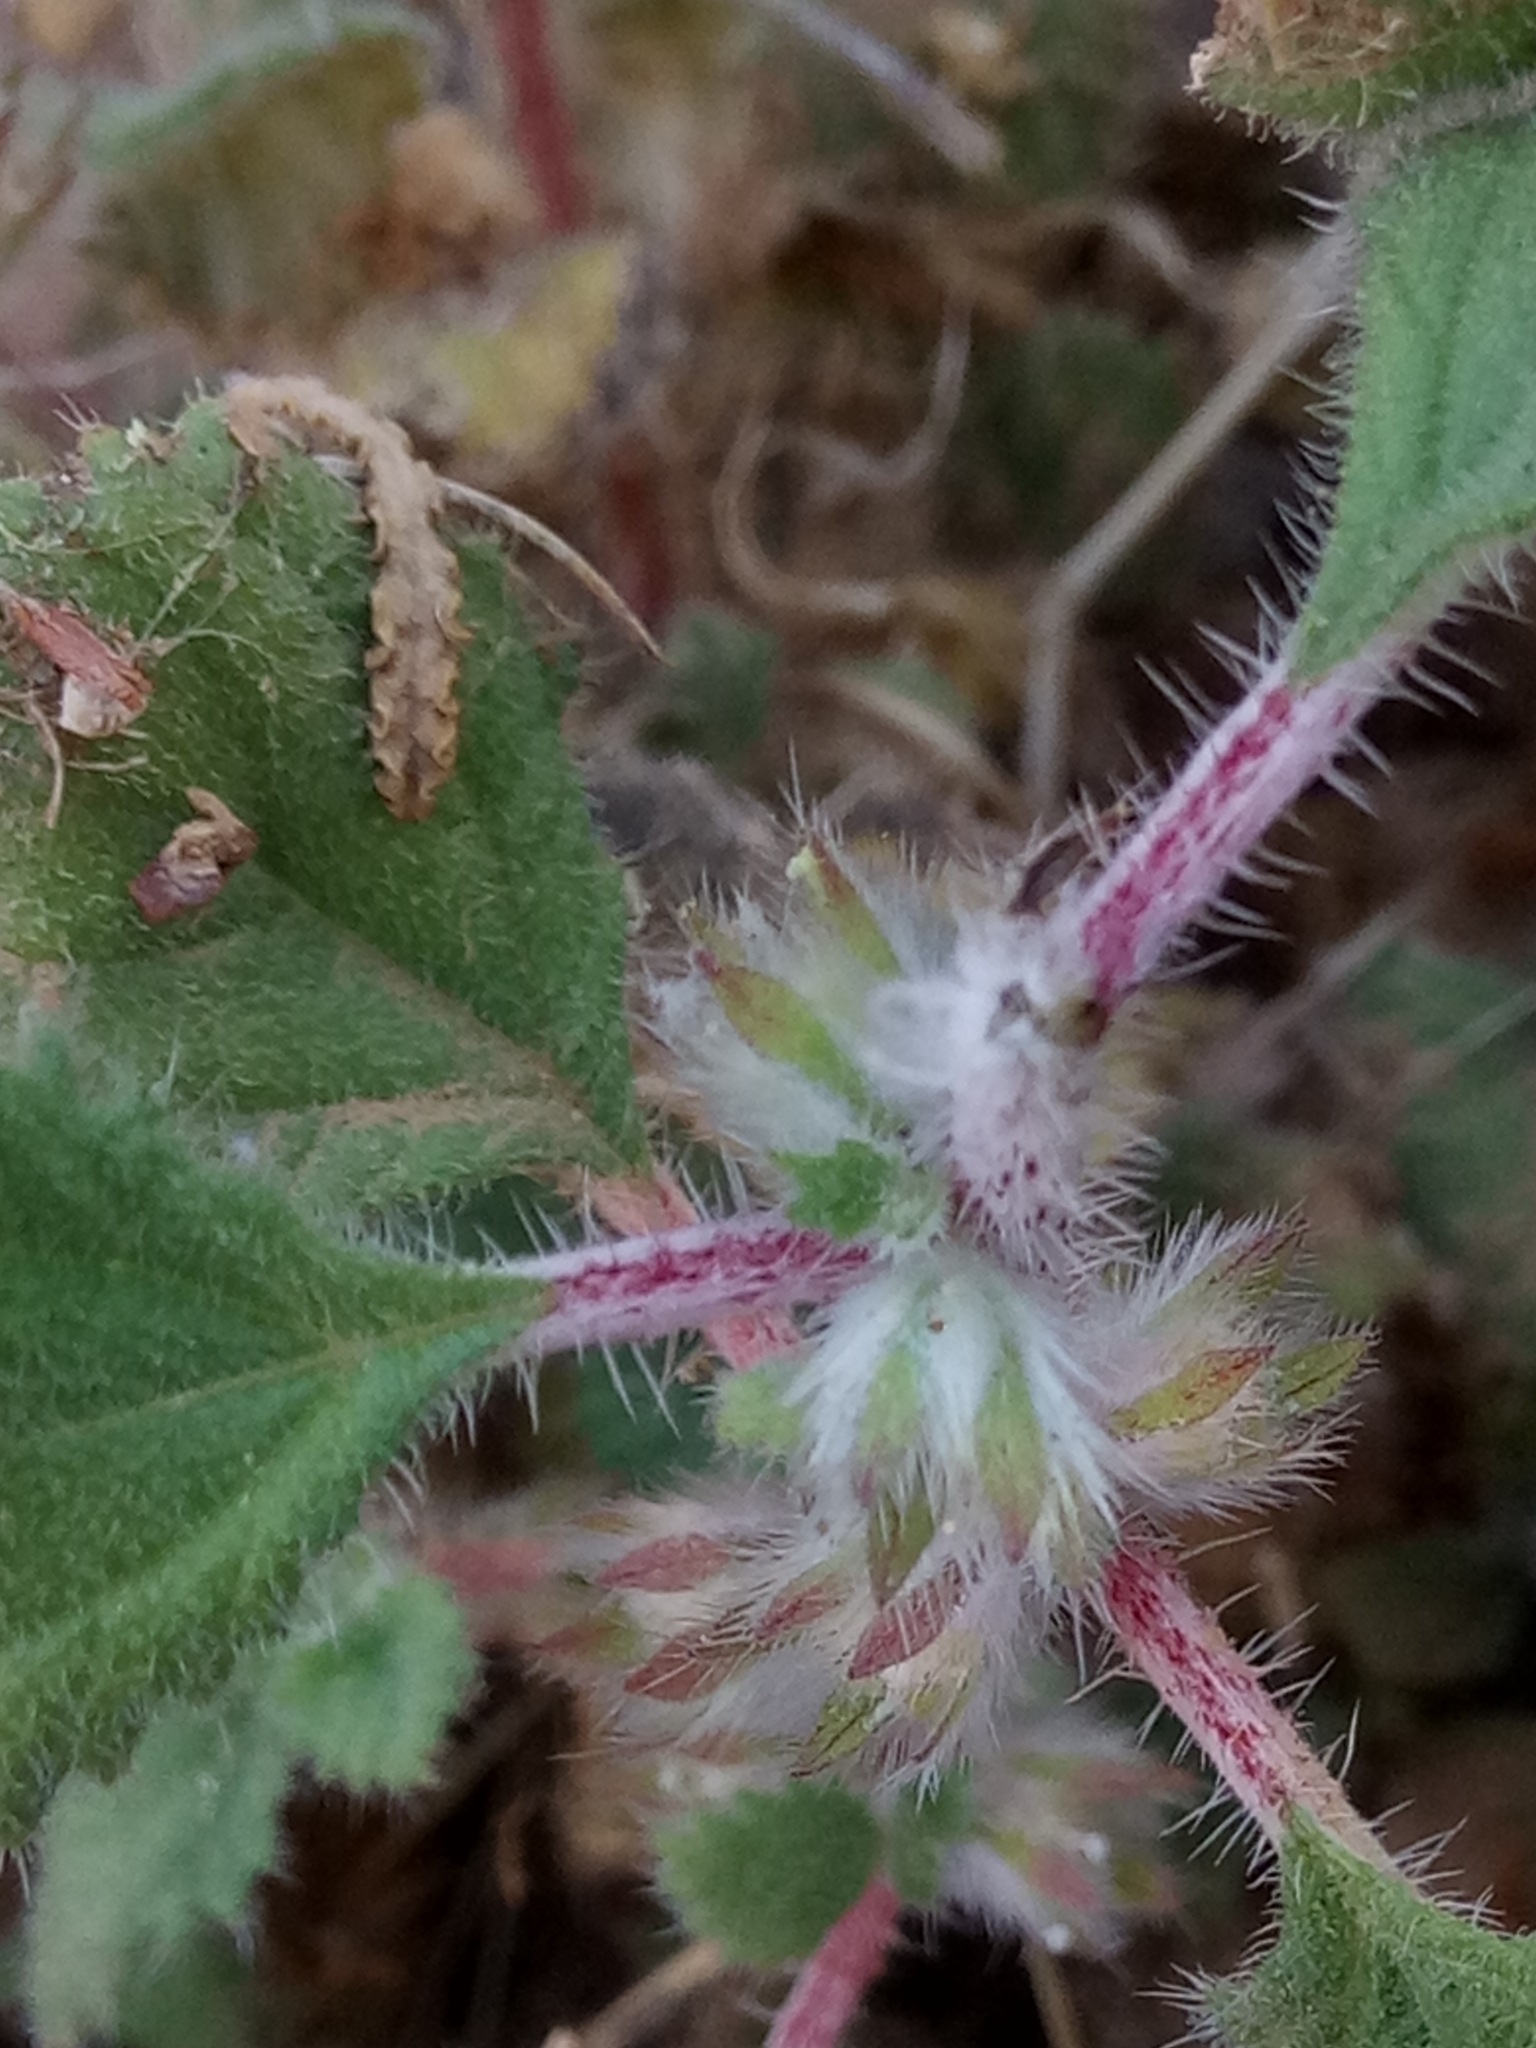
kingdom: Plantae
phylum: Tracheophyta
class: Magnoliopsida
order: Rosales
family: Urticaceae
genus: Forsskaolea
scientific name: Forsskaolea tenacissima
